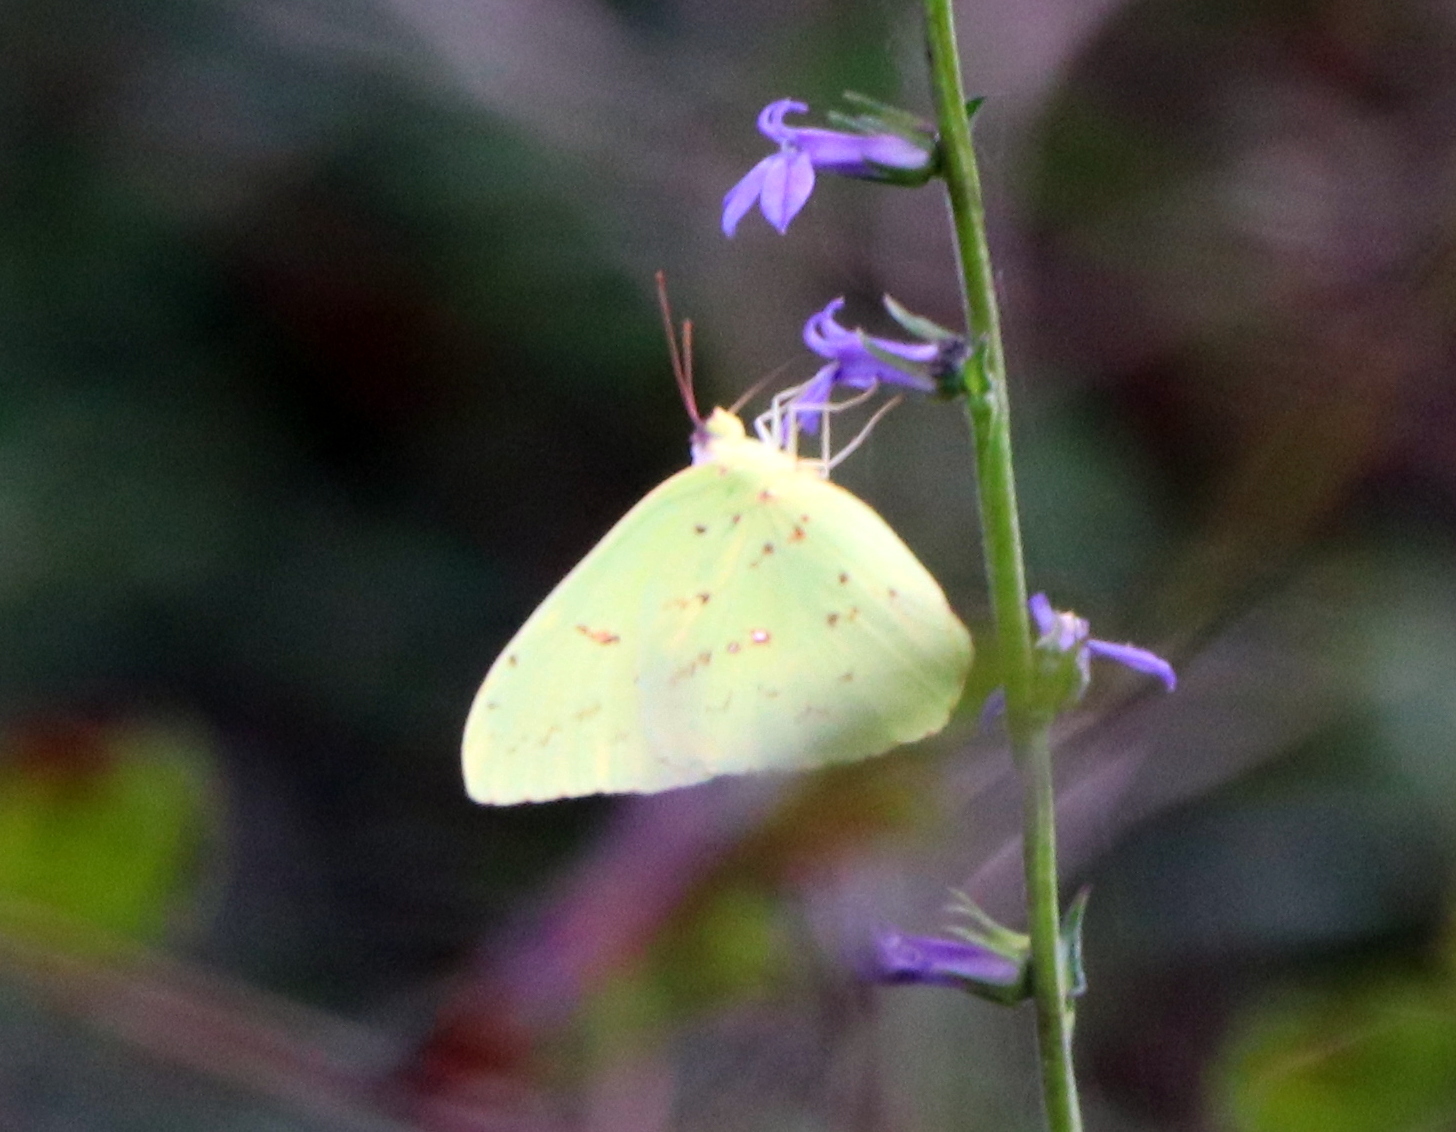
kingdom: Animalia
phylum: Arthropoda
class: Insecta
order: Lepidoptera
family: Pieridae
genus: Phoebis
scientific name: Phoebis sennae
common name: Cloudless sulphur
